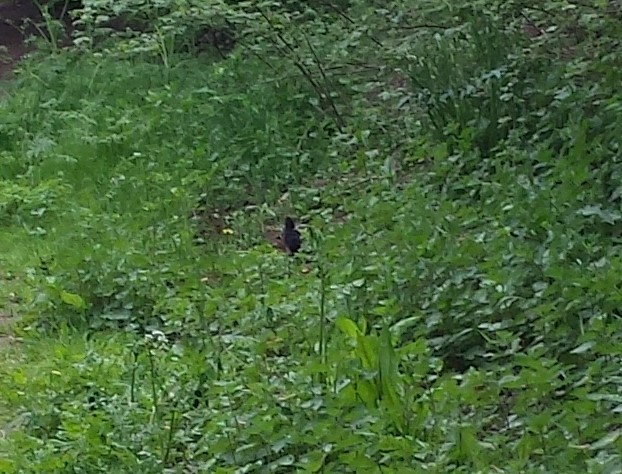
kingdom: Animalia
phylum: Chordata
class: Aves
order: Passeriformes
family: Turdidae
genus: Turdus
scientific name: Turdus merula
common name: Common blackbird
